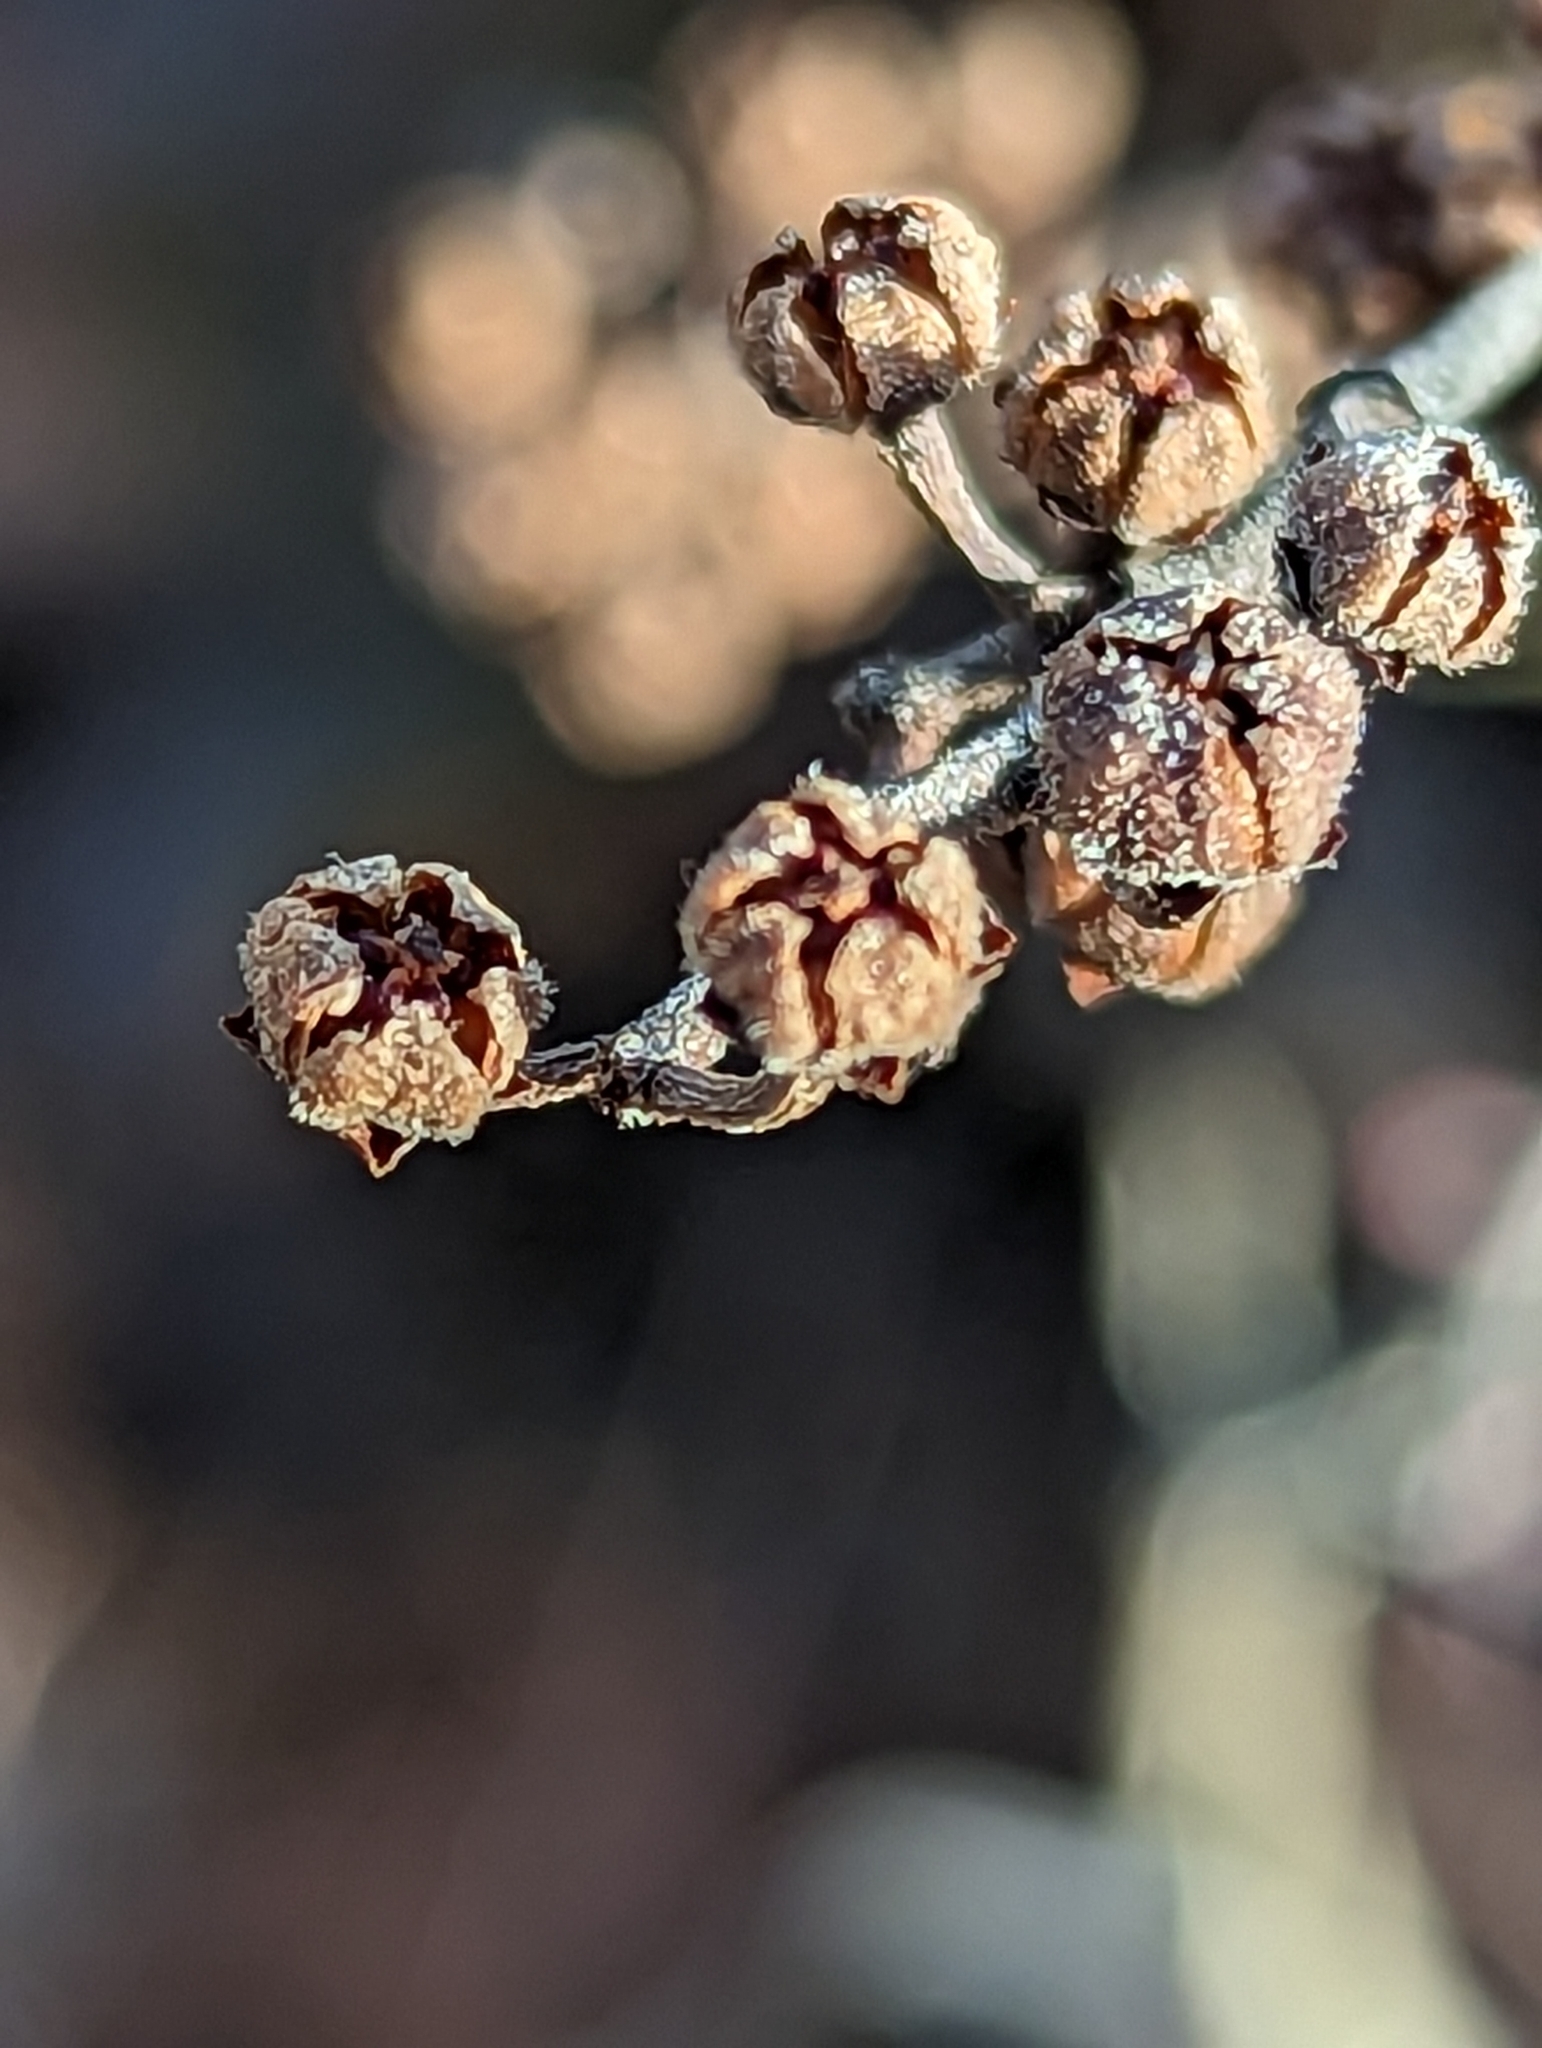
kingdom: Plantae
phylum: Tracheophyta
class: Magnoliopsida
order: Ericales
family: Ericaceae
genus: Lyonia
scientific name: Lyonia ligustrina
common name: Maleberry
